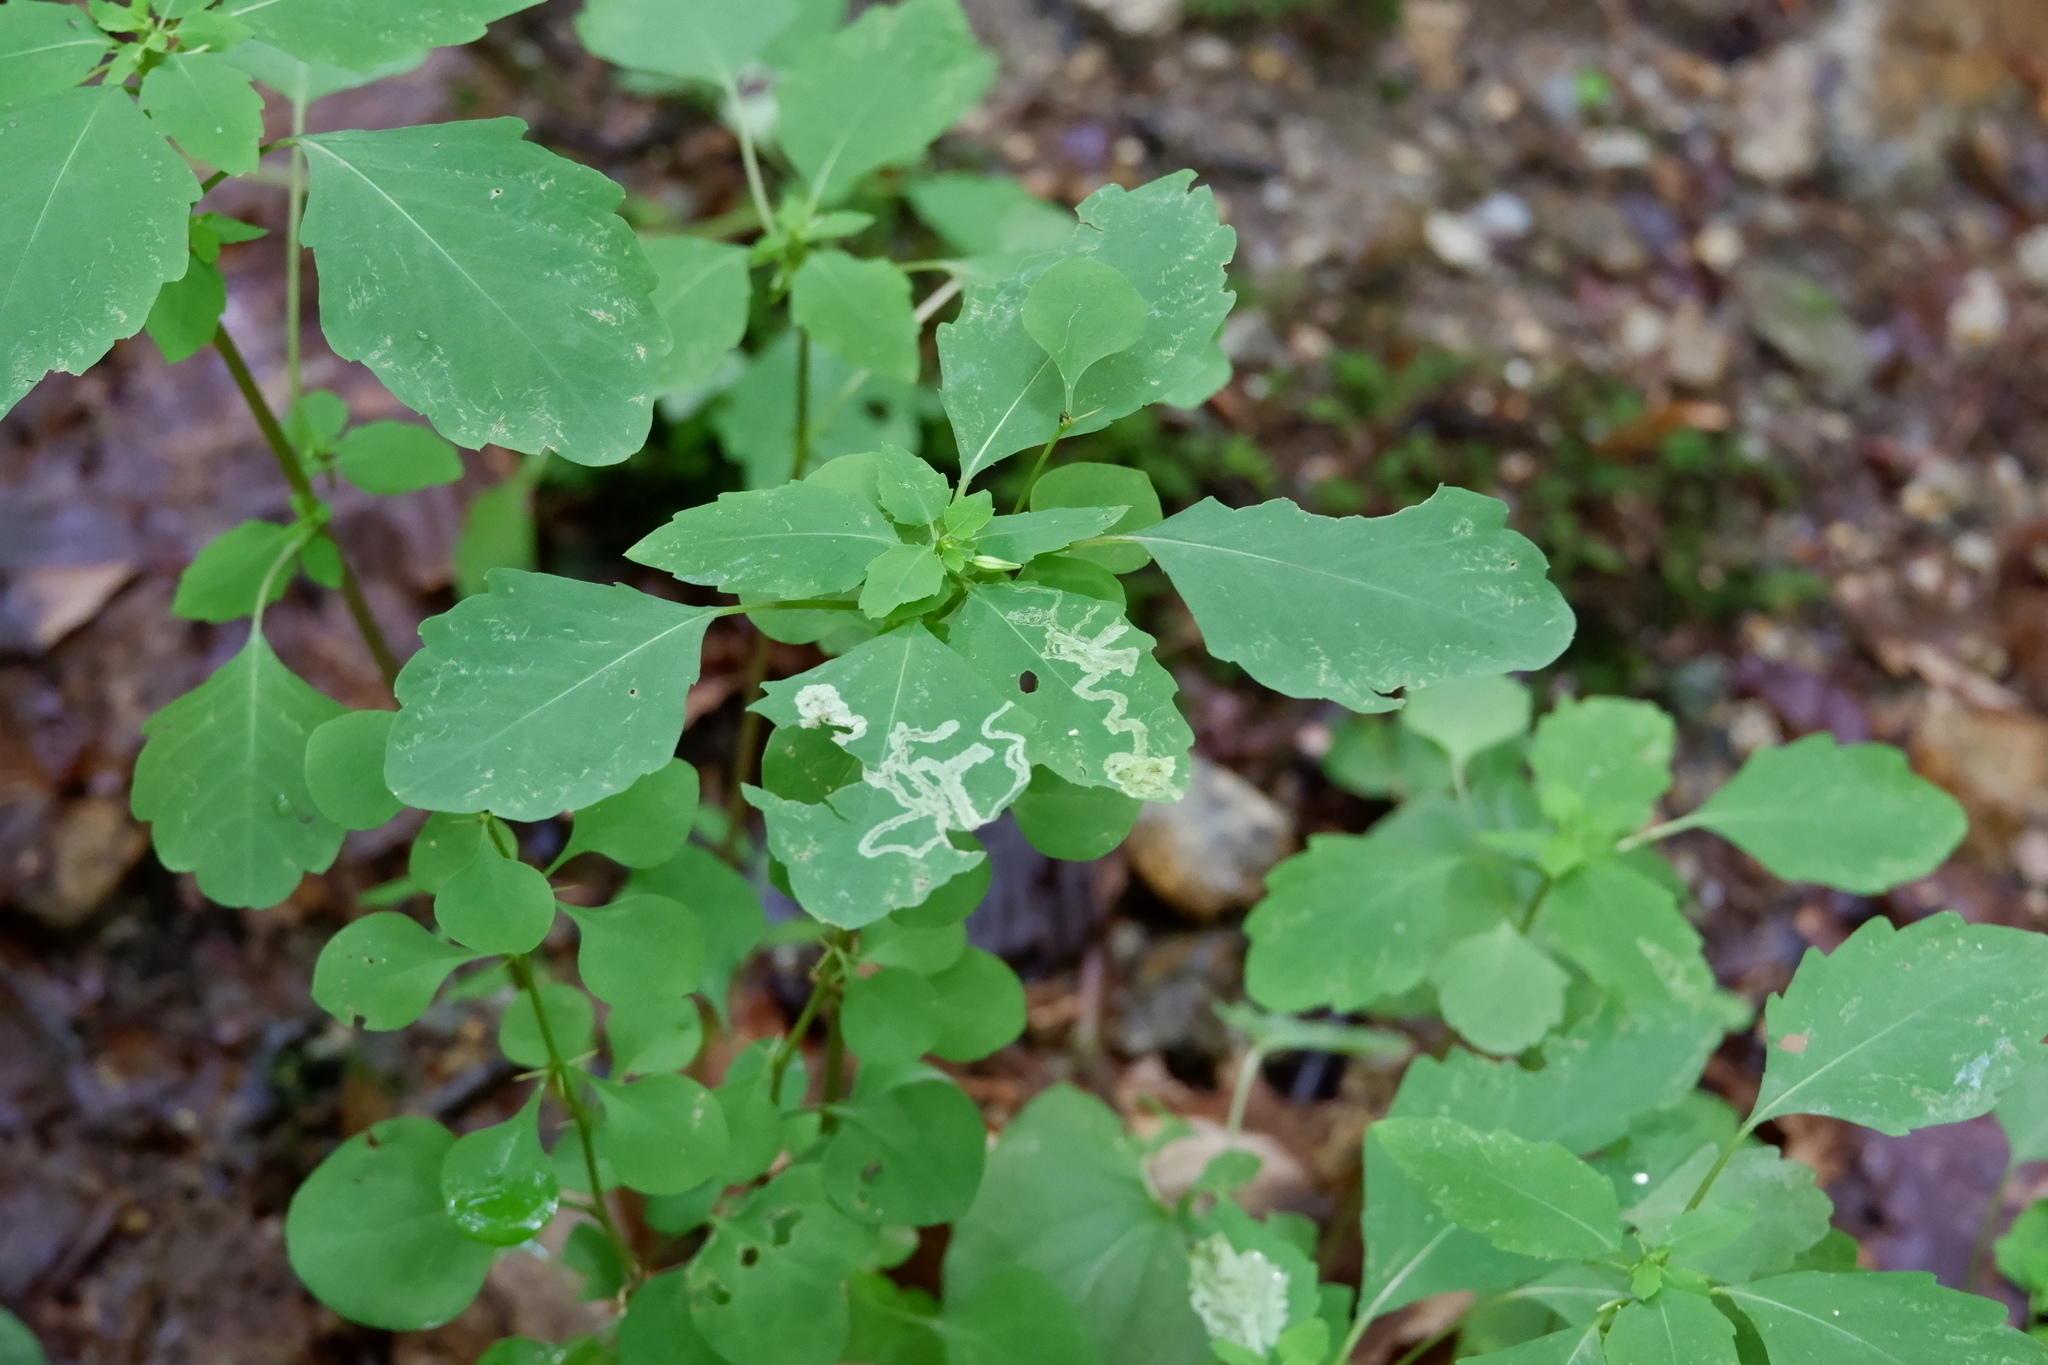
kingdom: Animalia
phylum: Arthropoda
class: Insecta
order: Diptera
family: Agromyzidae
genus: Phytoliriomyza
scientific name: Phytoliriomyza melampyga
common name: Jewelweed leaf-miner fly
